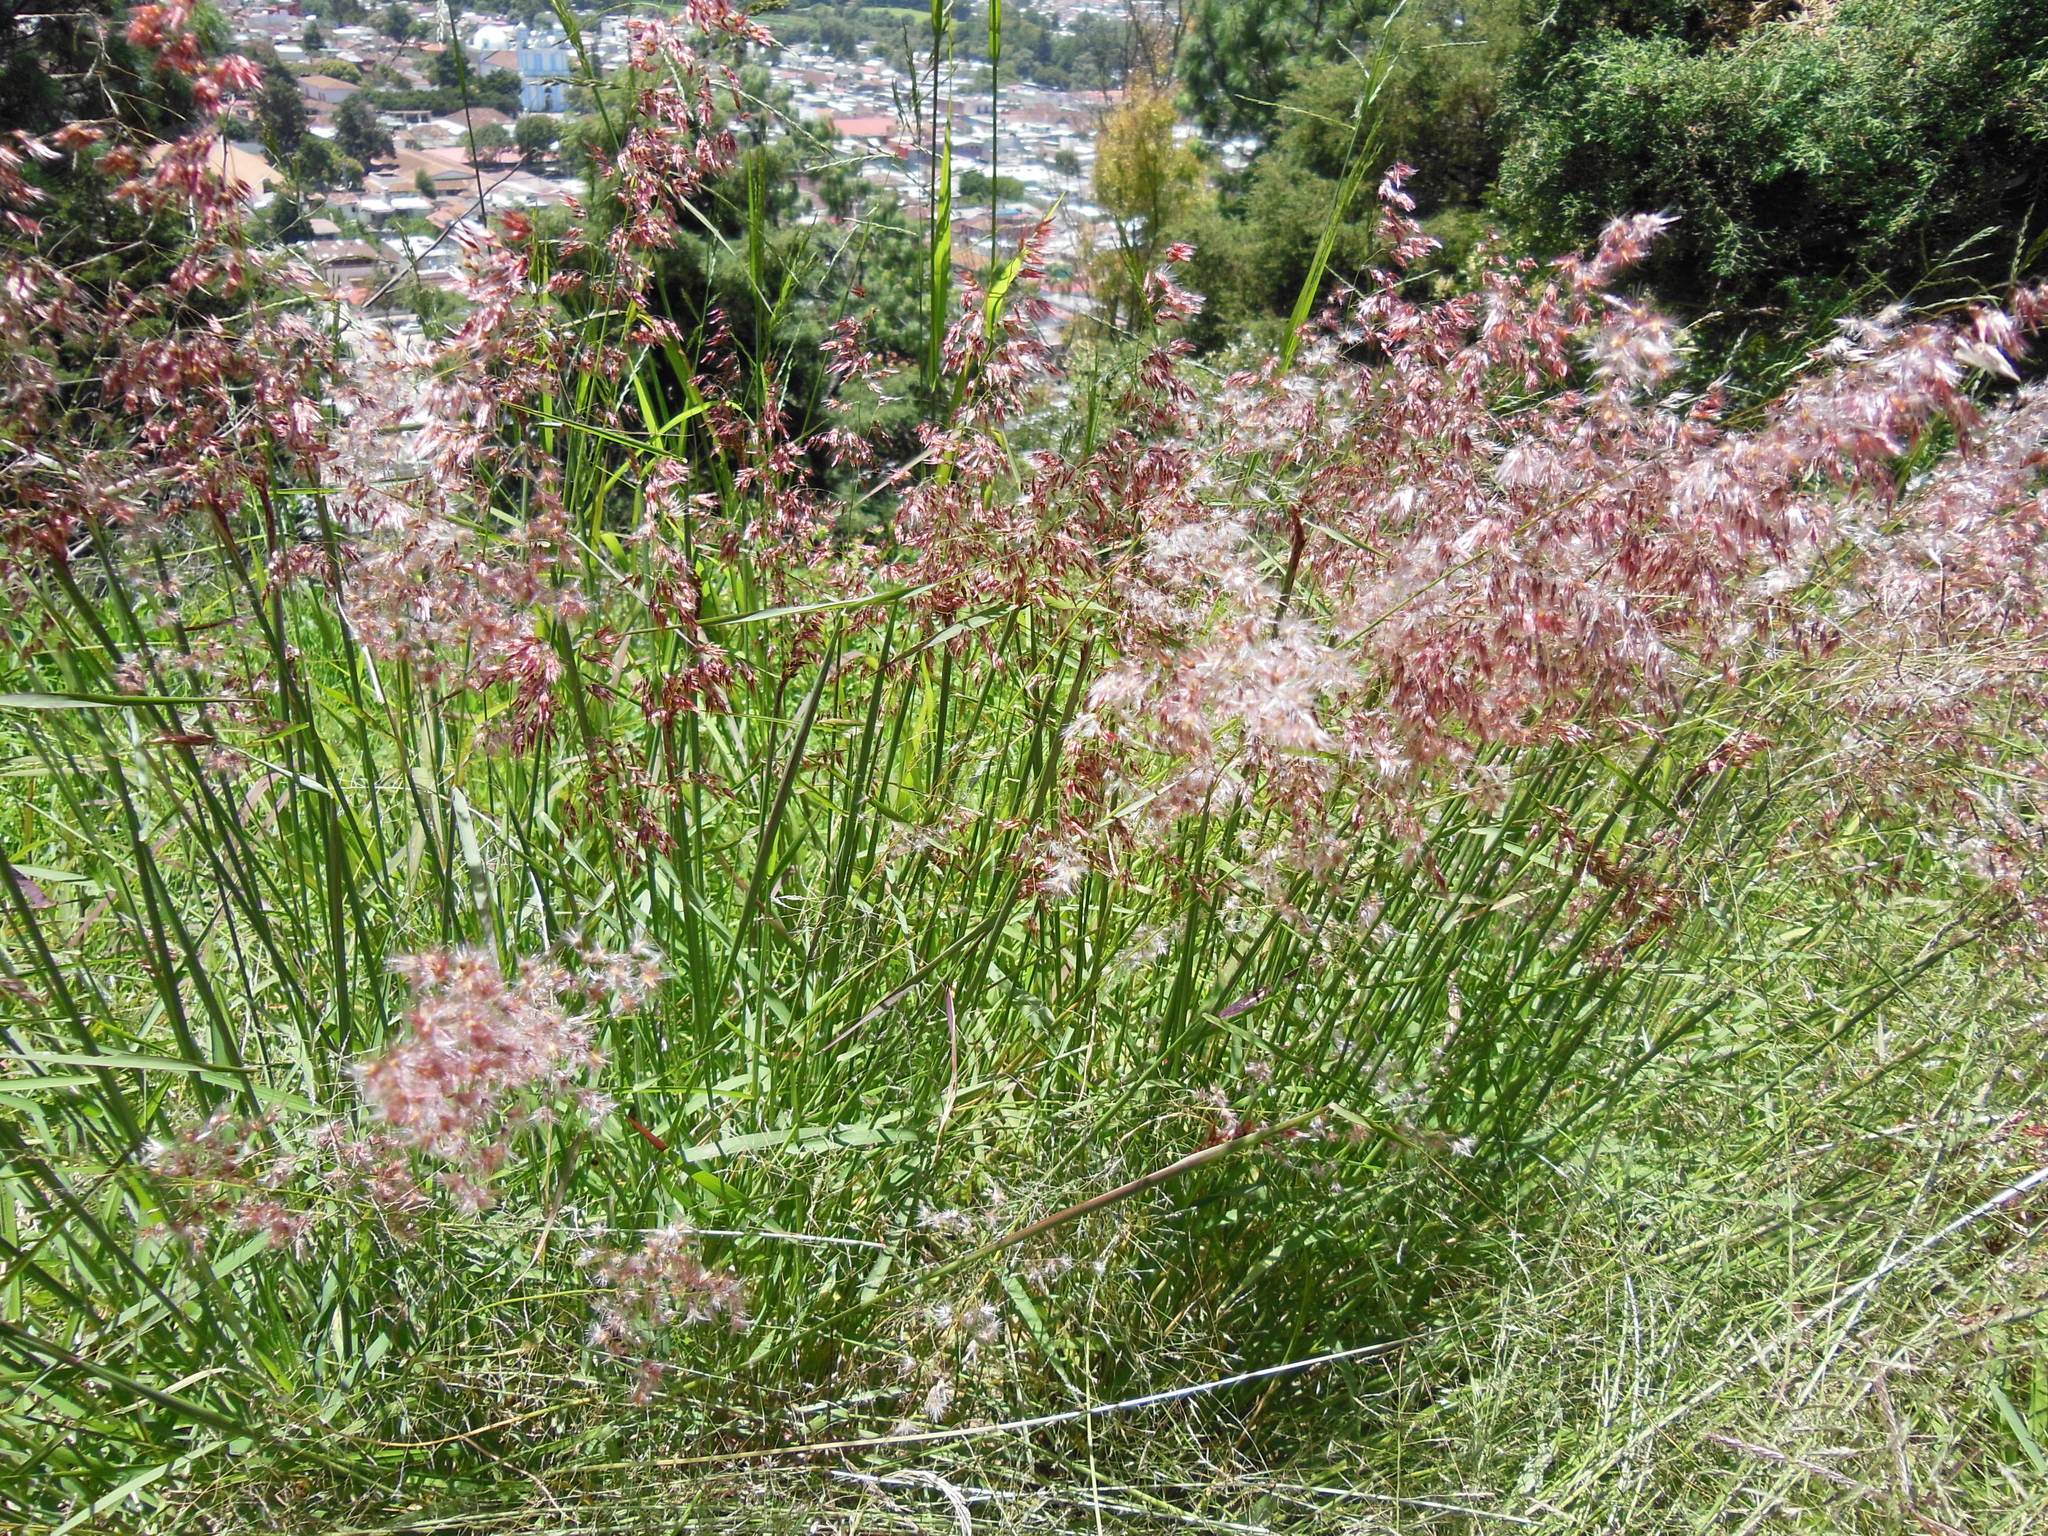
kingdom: Plantae
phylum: Tracheophyta
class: Liliopsida
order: Poales
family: Poaceae
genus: Melinis
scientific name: Melinis repens
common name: Rose natal grass
